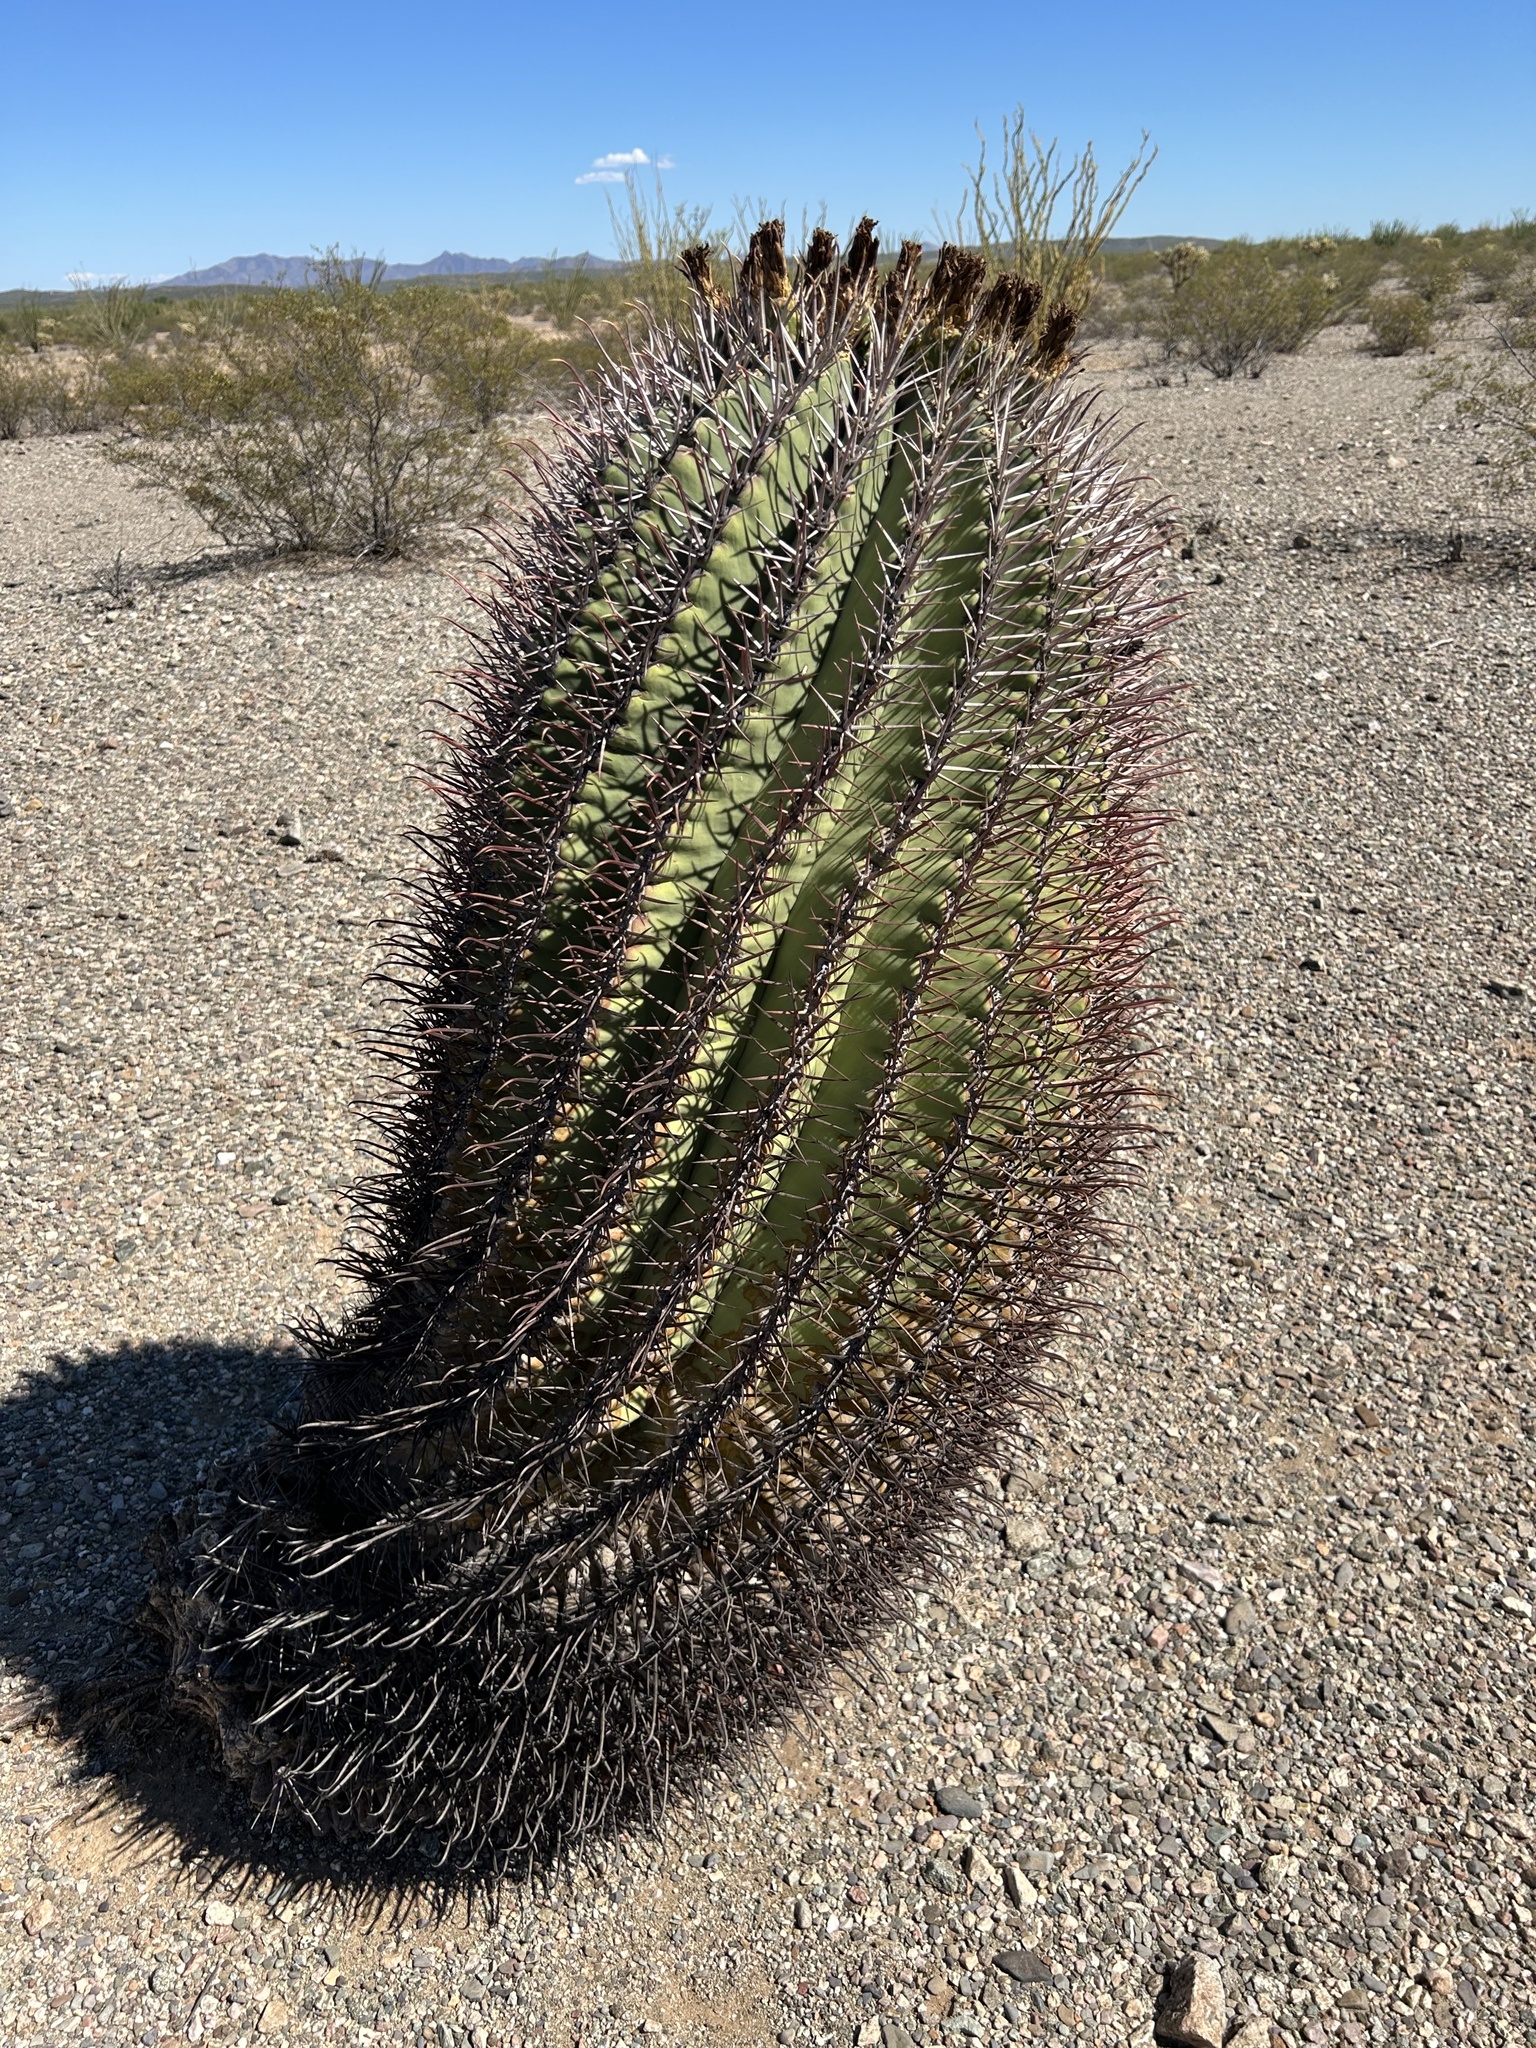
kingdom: Plantae
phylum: Tracheophyta
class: Magnoliopsida
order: Caryophyllales
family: Cactaceae
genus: Ferocactus
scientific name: Ferocactus emoryi
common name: Emory's barrel cactus
